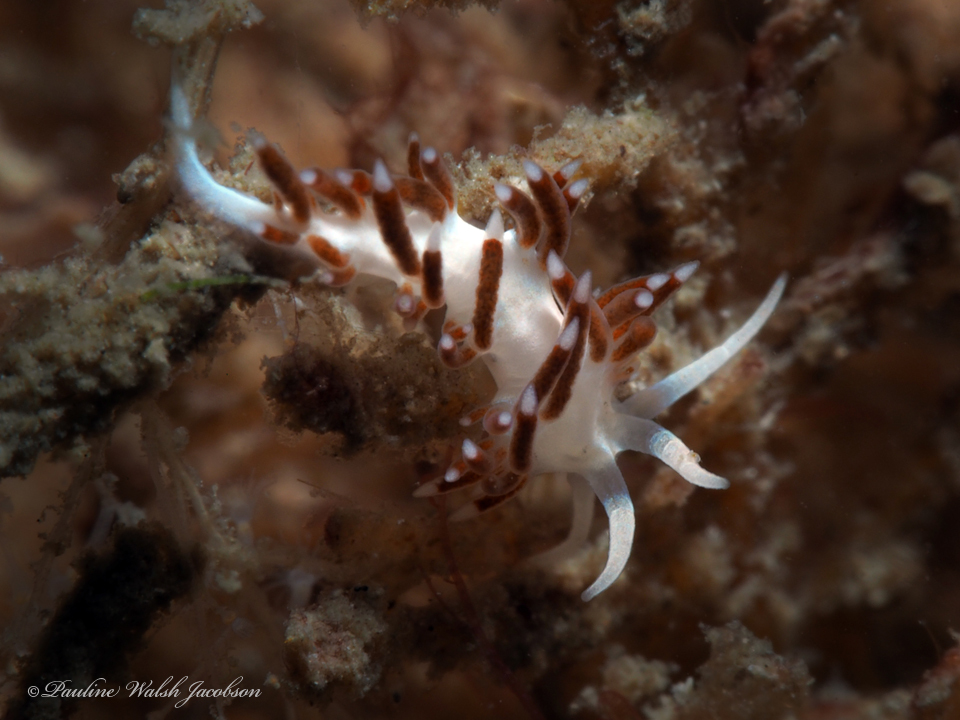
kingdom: Animalia
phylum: Mollusca
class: Gastropoda
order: Nudibranchia
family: Flabellinidae
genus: Flabellina
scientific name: Flabellina dushia
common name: Dushia flabellina
